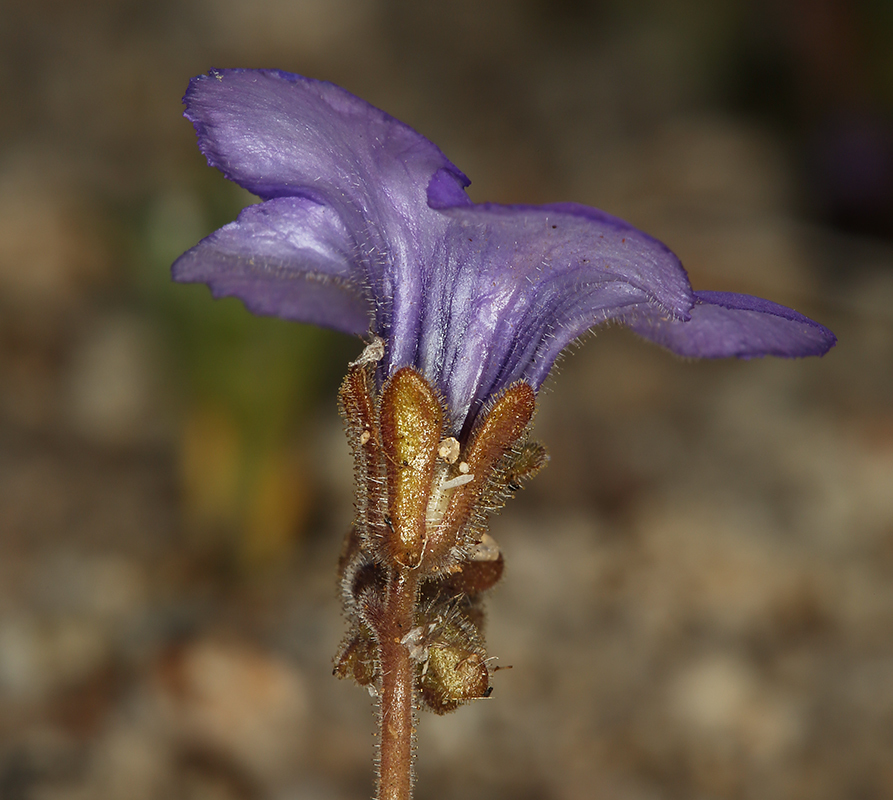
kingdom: Plantae
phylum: Tracheophyta
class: Magnoliopsida
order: Boraginales
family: Hydrophyllaceae
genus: Phacelia
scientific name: Phacelia fremontii
